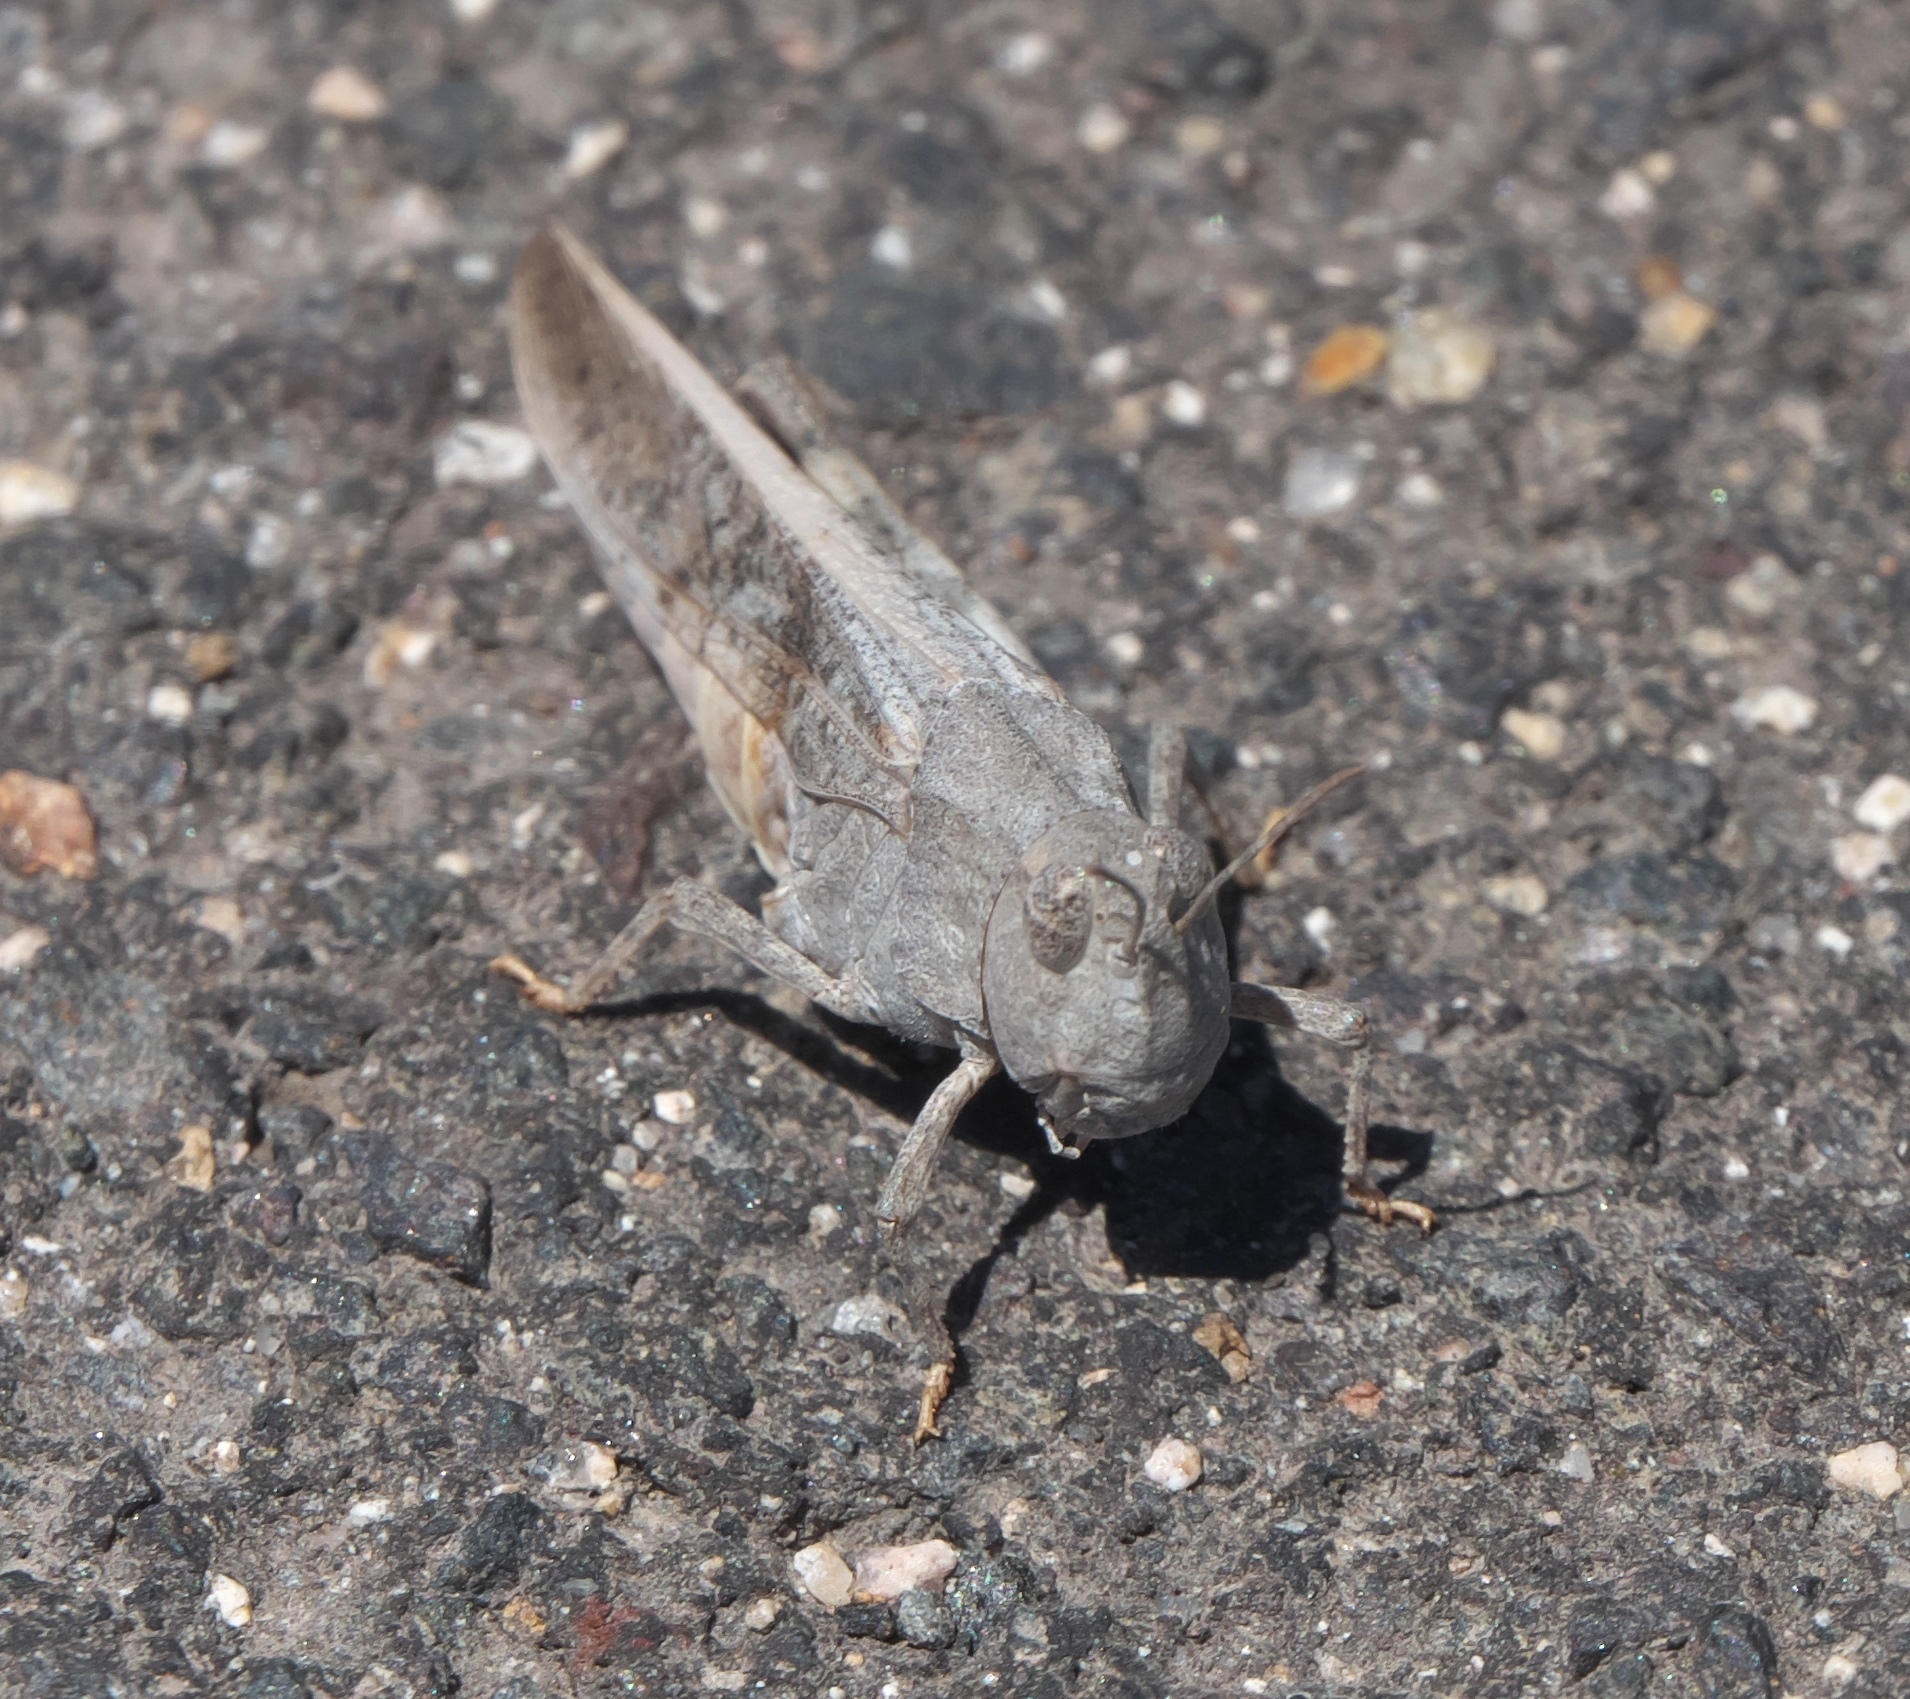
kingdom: Animalia
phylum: Arthropoda
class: Insecta
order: Orthoptera
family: Acrididae
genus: Arphia
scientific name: Arphia conspersa
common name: Speckle-winged rangeland grasshopper
